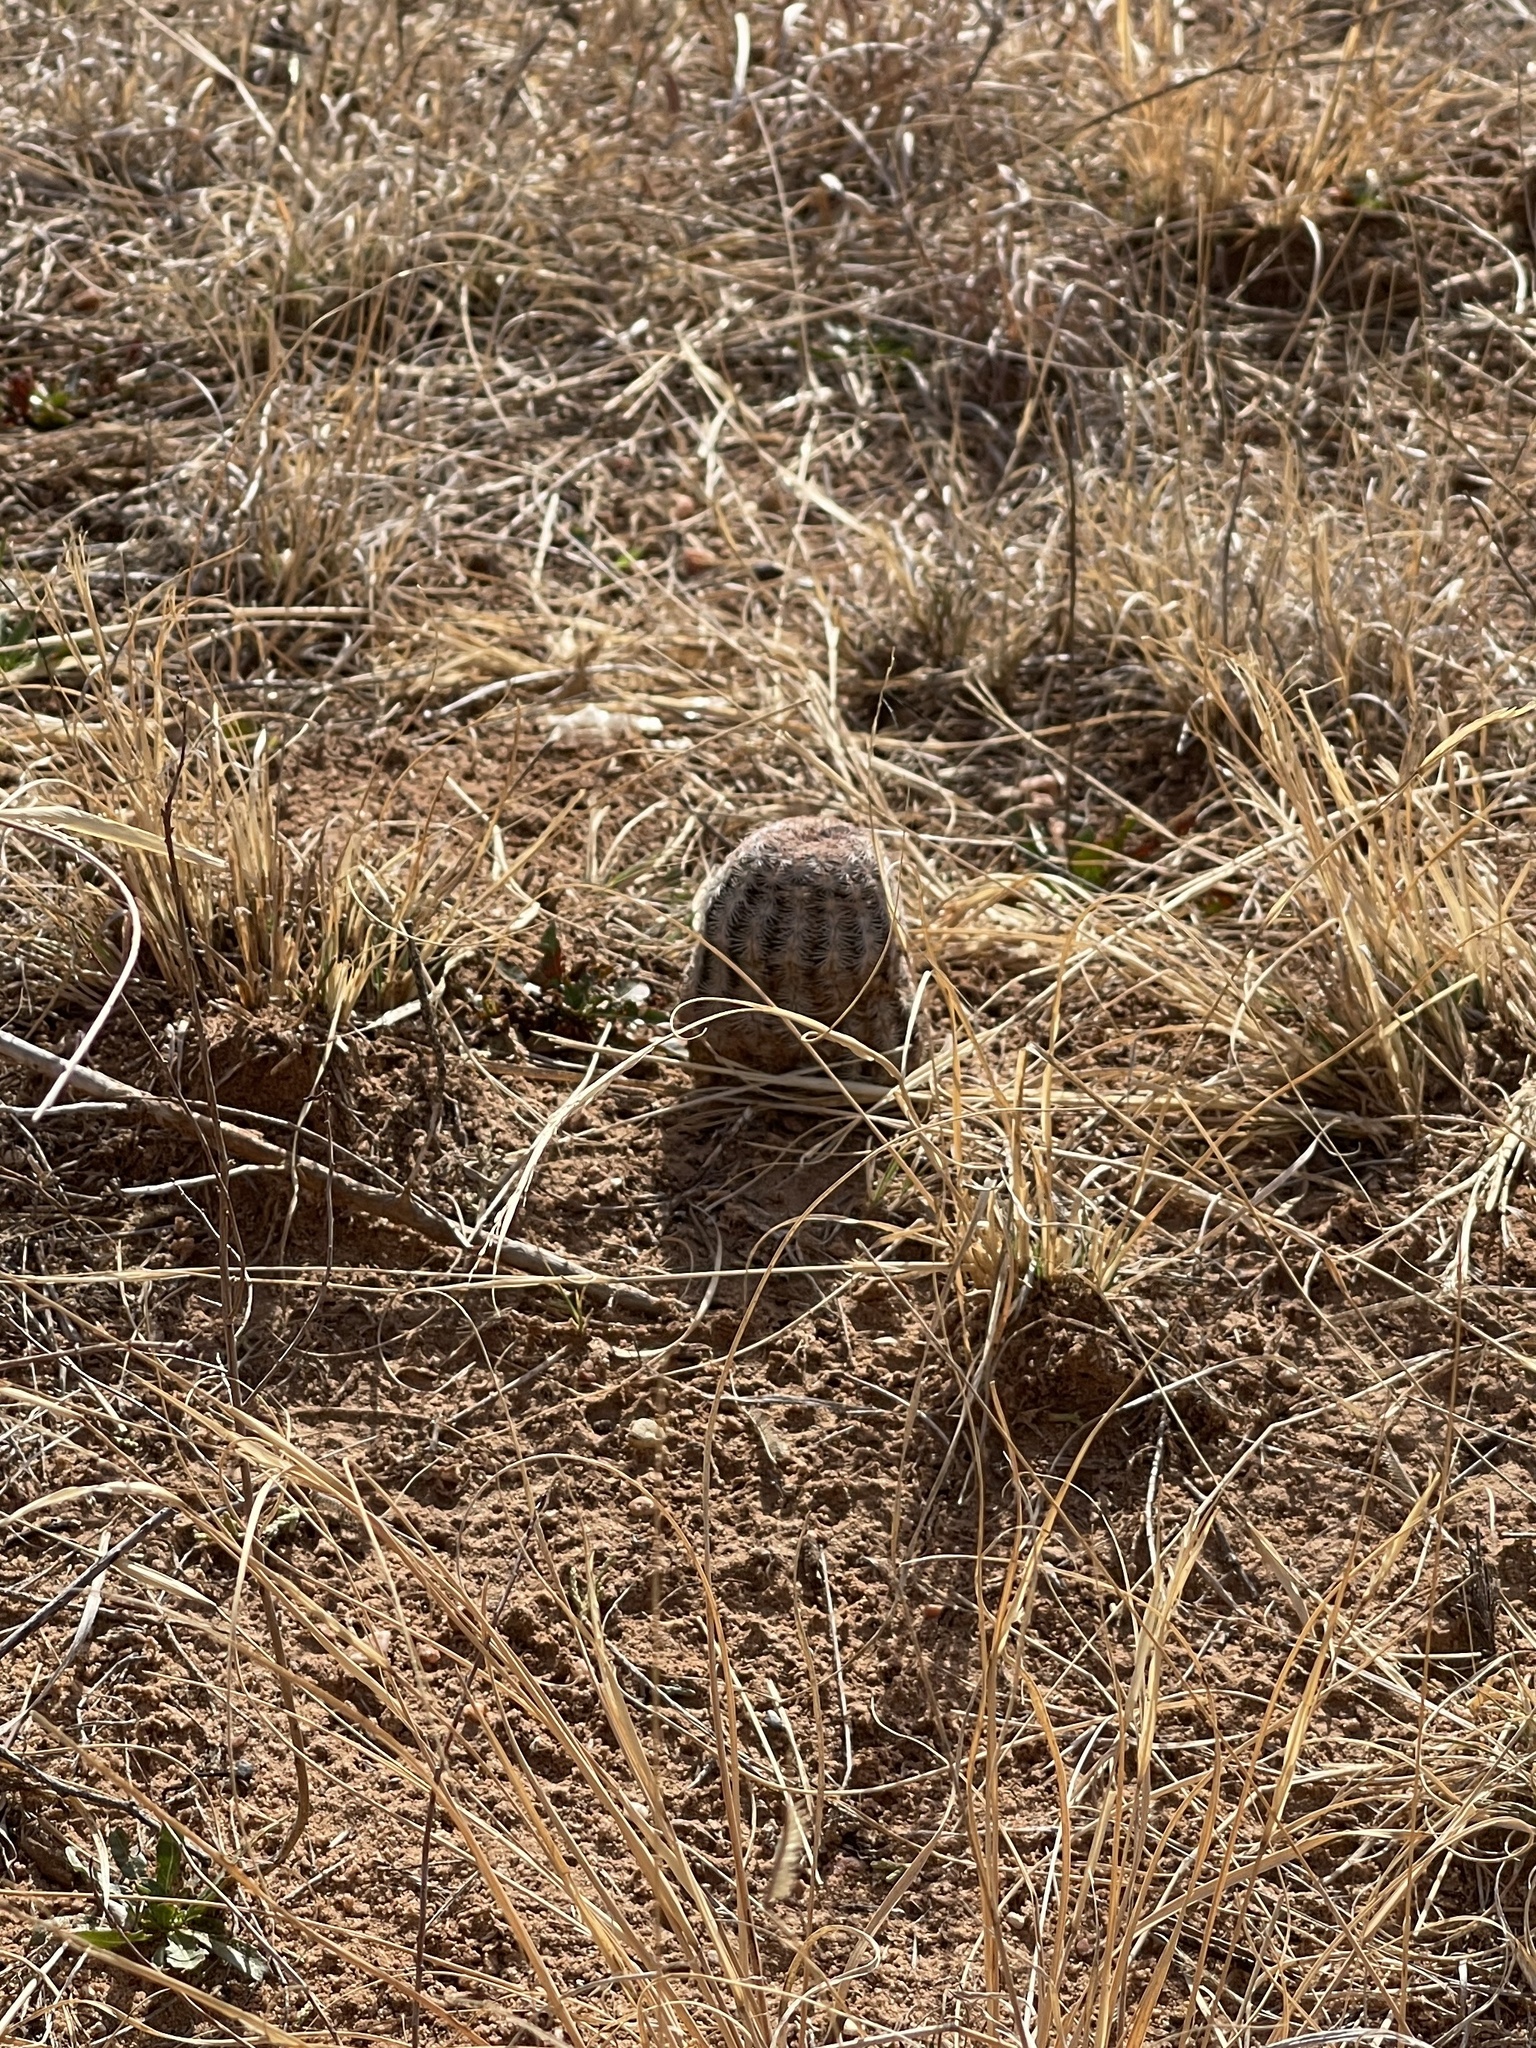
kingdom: Plantae
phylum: Tracheophyta
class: Magnoliopsida
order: Caryophyllales
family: Cactaceae
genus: Echinocereus
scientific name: Echinocereus reichenbachii
